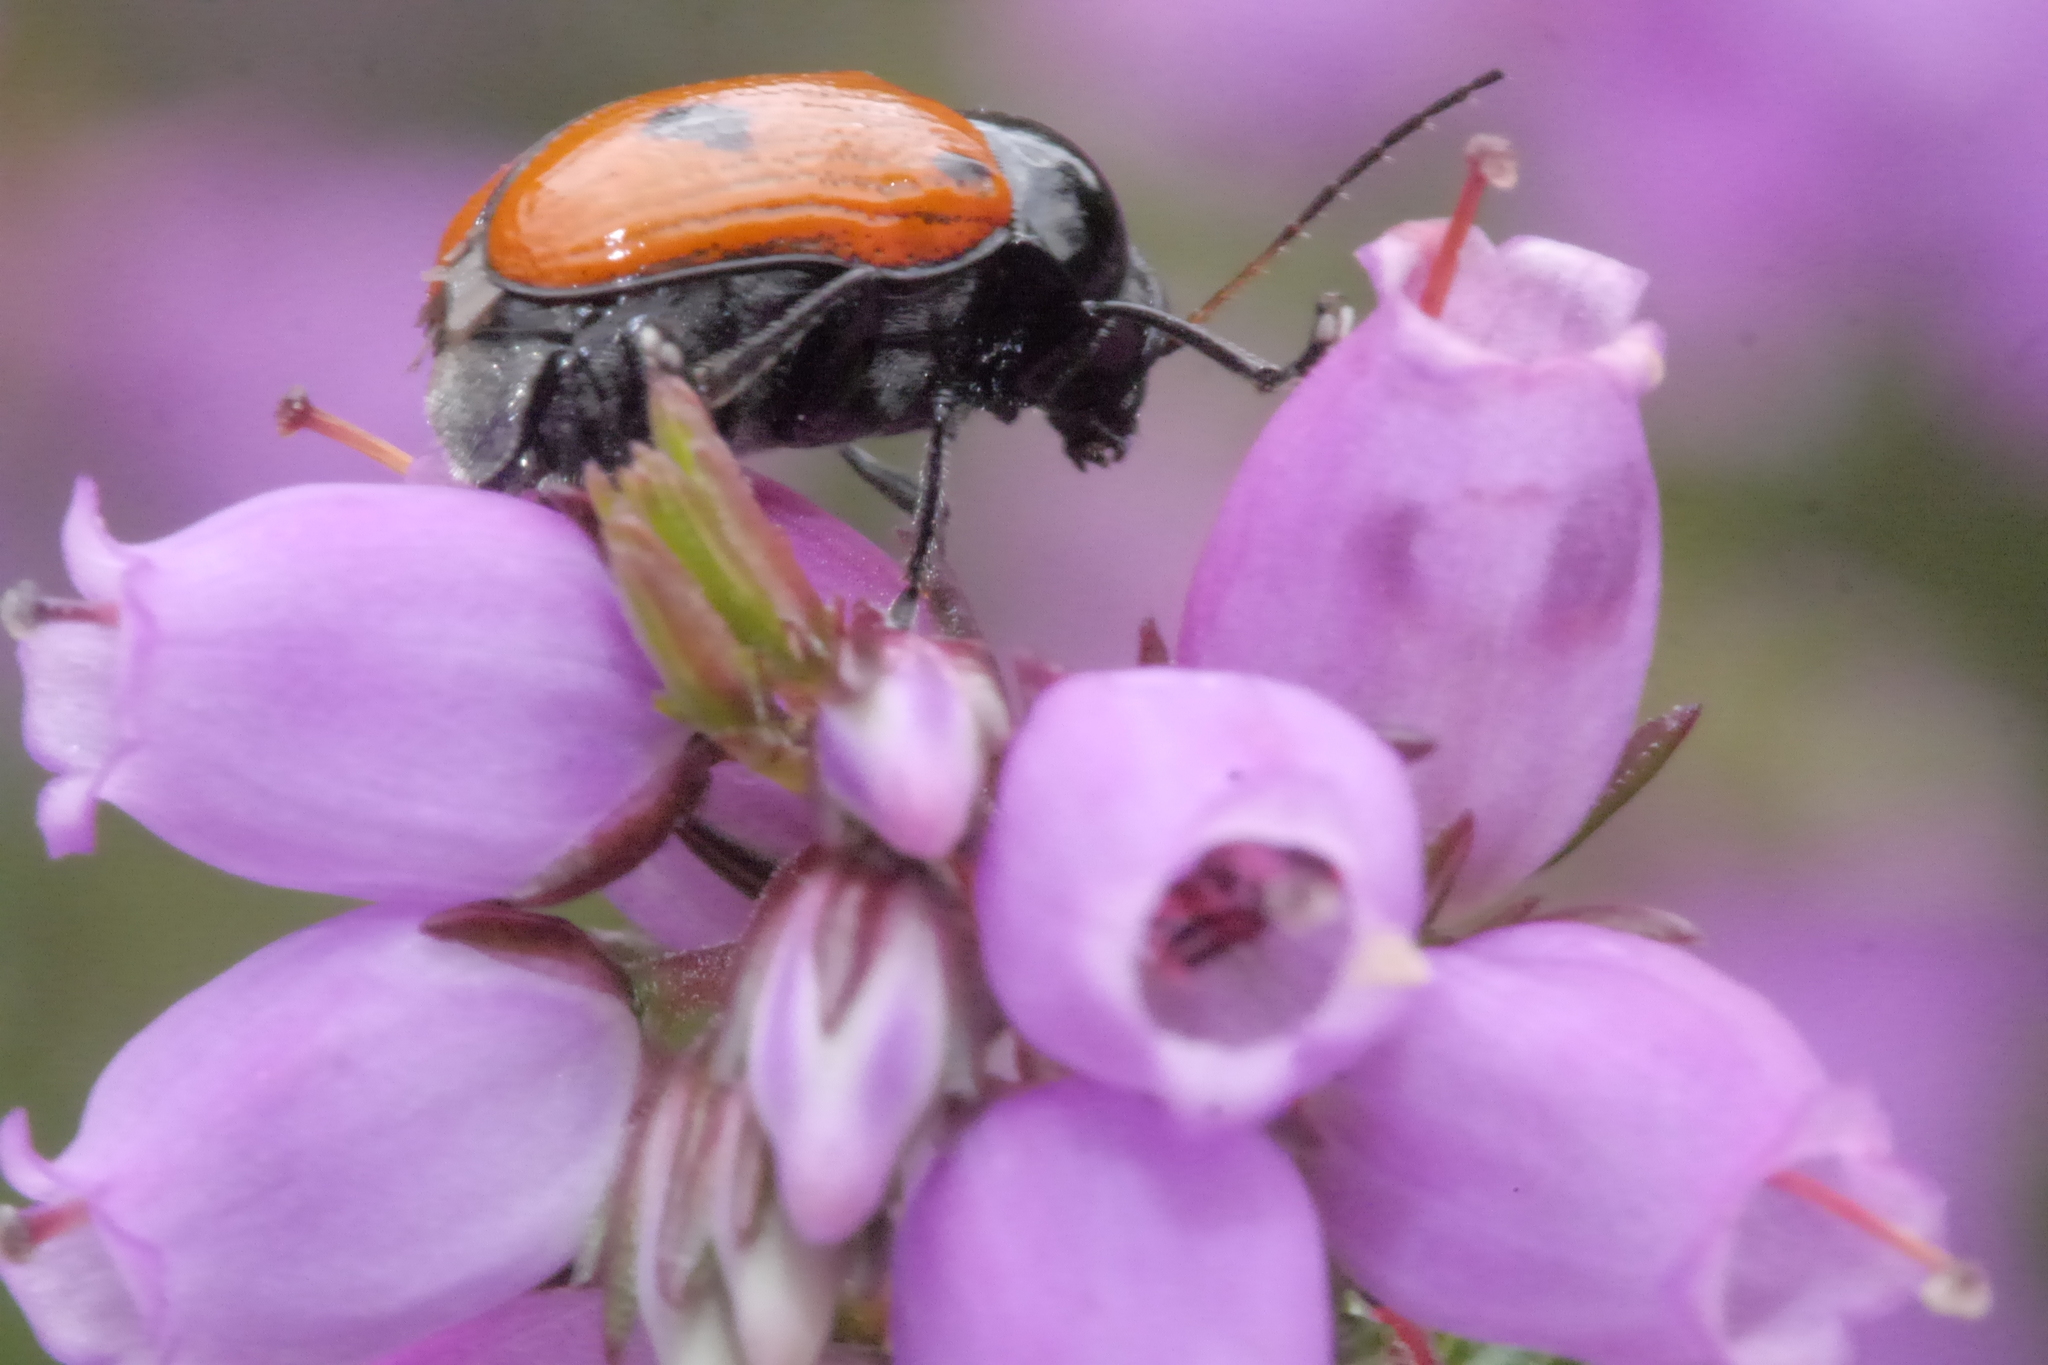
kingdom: Animalia
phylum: Arthropoda
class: Insecta
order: Coleoptera
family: Chrysomelidae
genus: Chiridopsis
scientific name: Chiridopsis bipunctata
